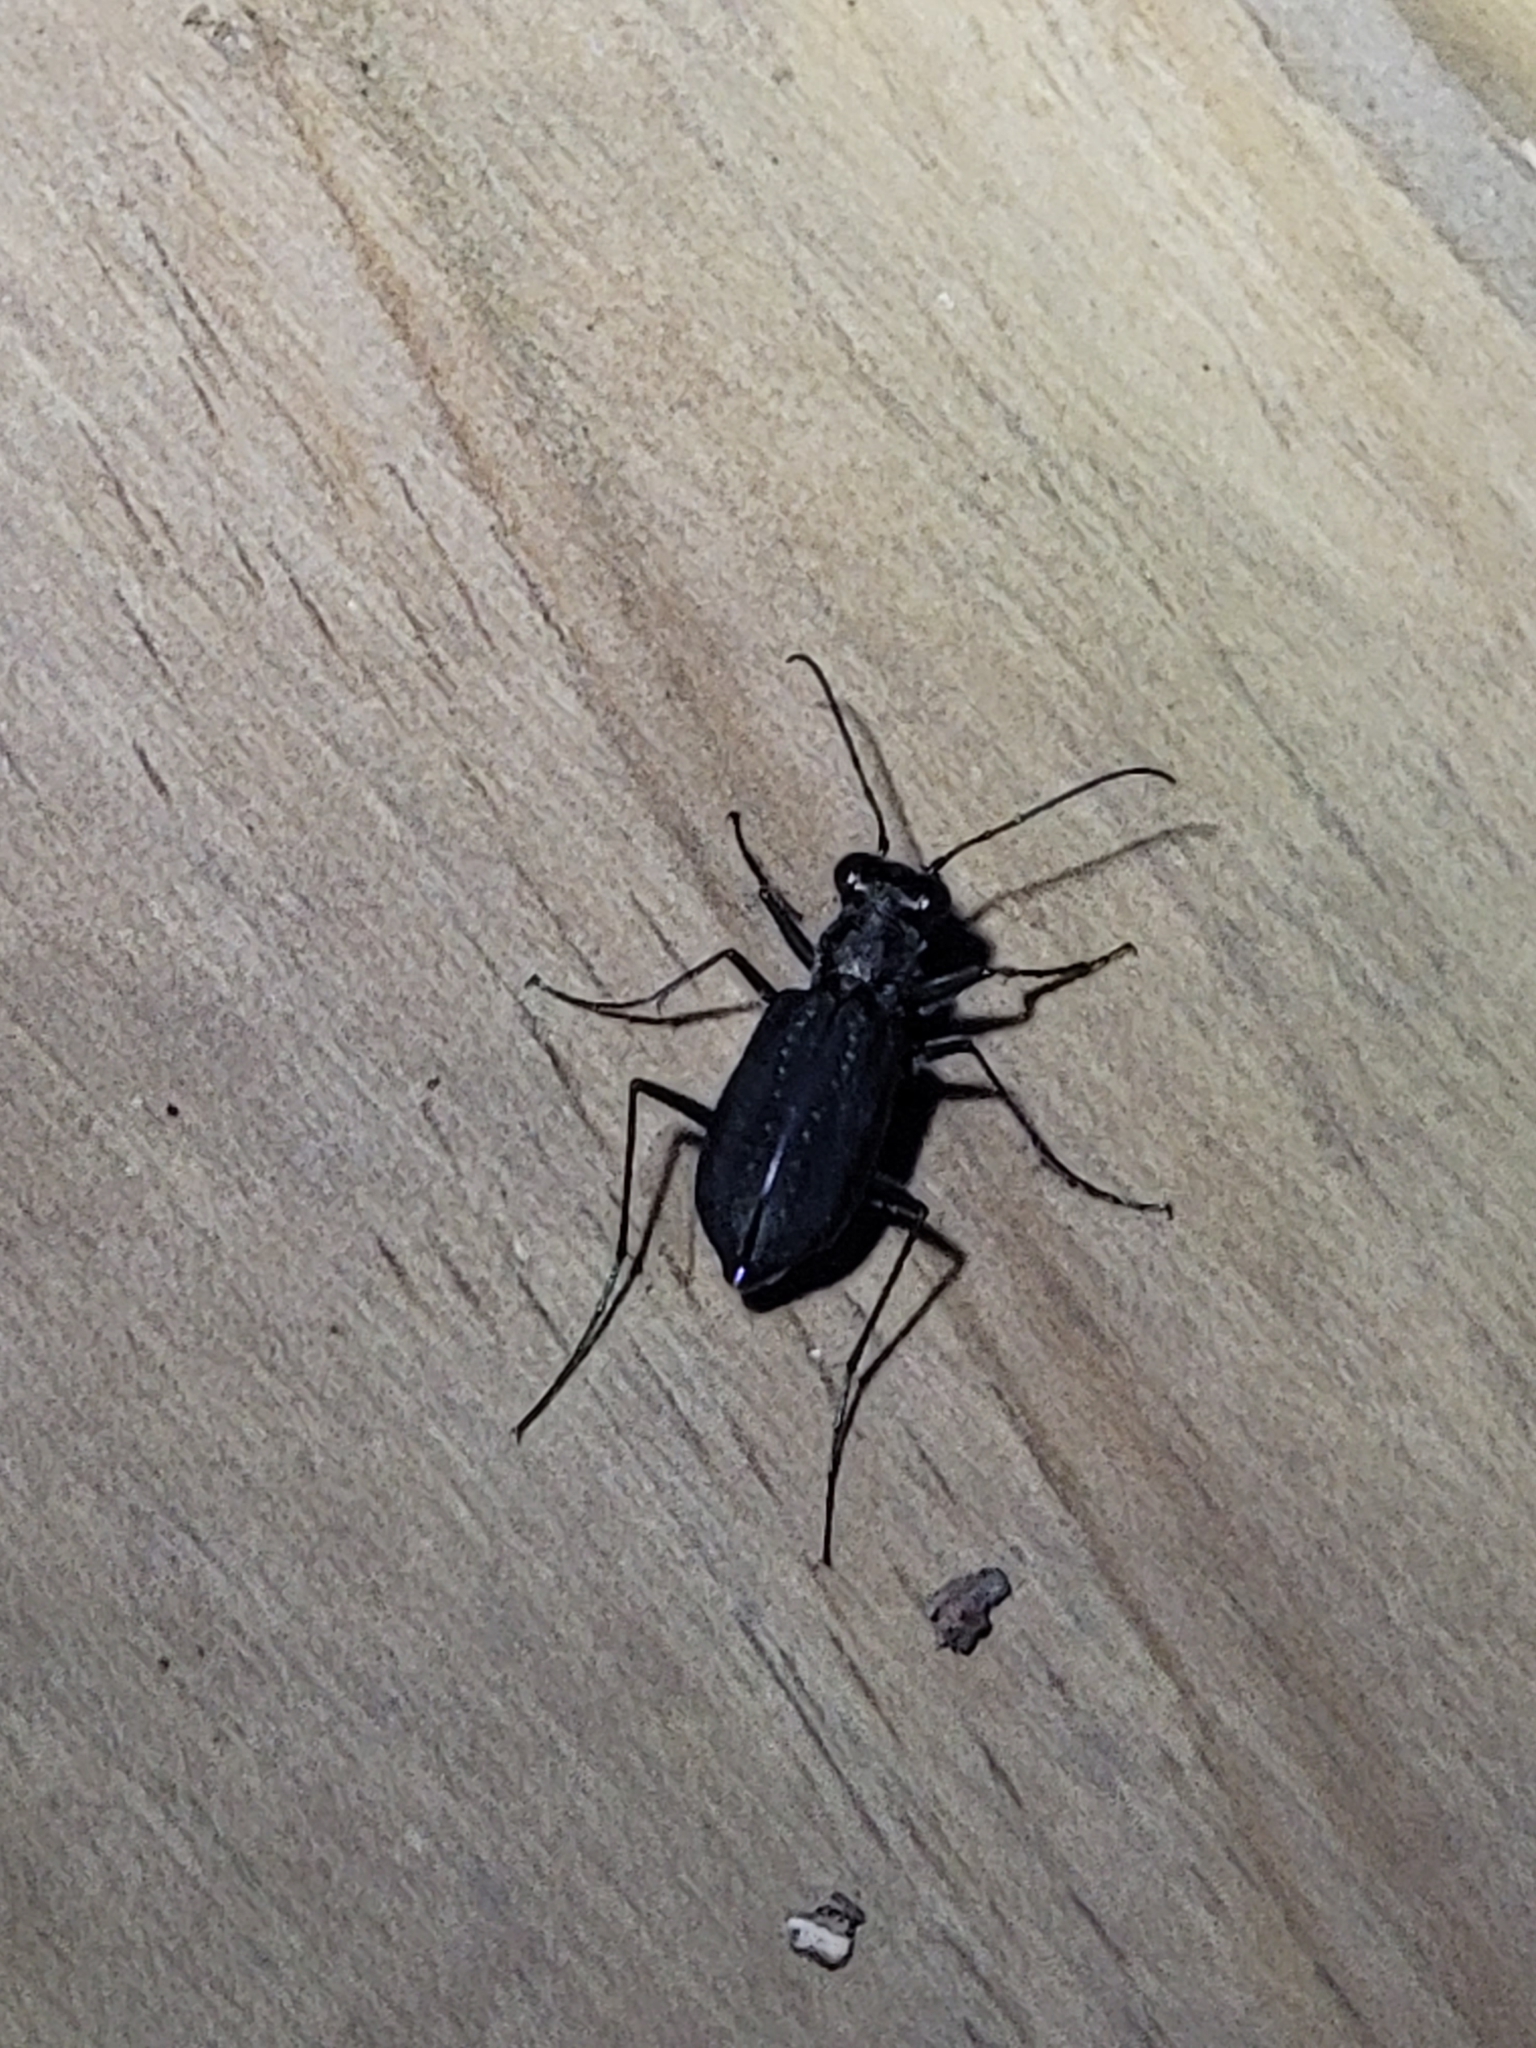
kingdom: Animalia
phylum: Arthropoda
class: Insecta
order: Coleoptera
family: Carabidae
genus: Cicindela
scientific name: Cicindela punctulata
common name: Punctured tiger beetle
